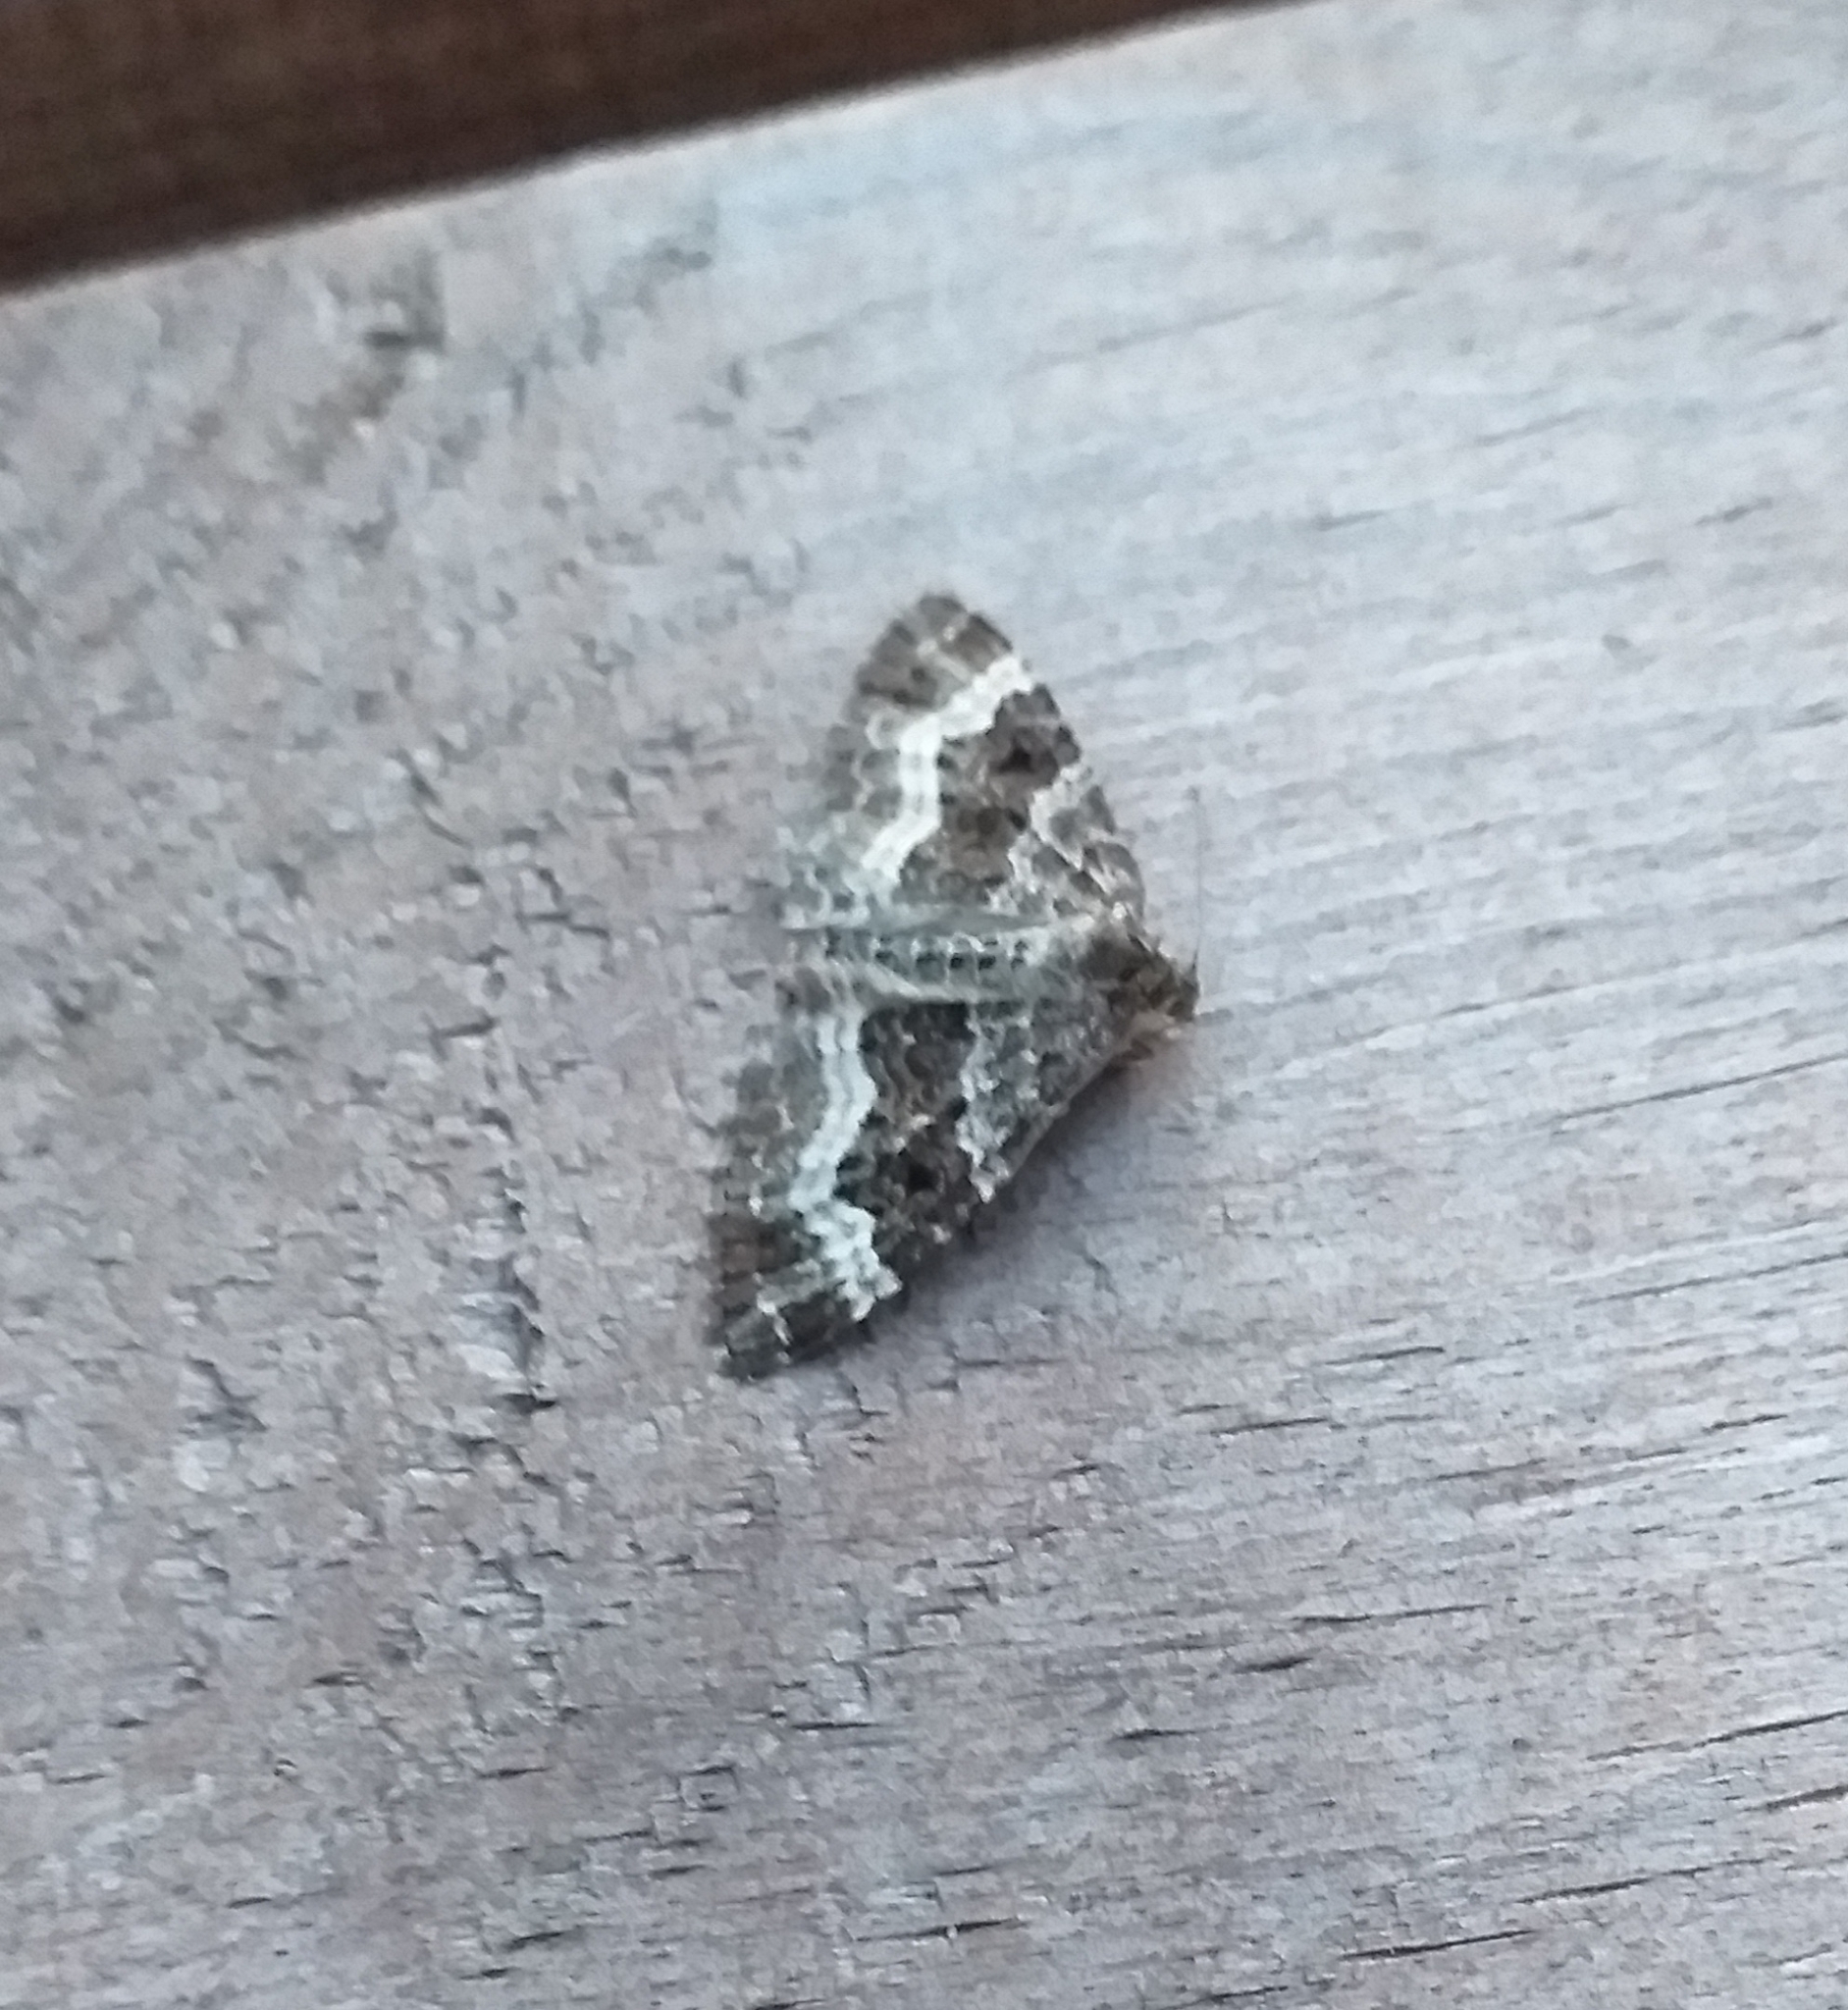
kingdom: Animalia
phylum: Arthropoda
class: Insecta
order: Lepidoptera
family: Geometridae
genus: Epirrhoe
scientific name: Epirrhoe alternata
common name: Common carpet
